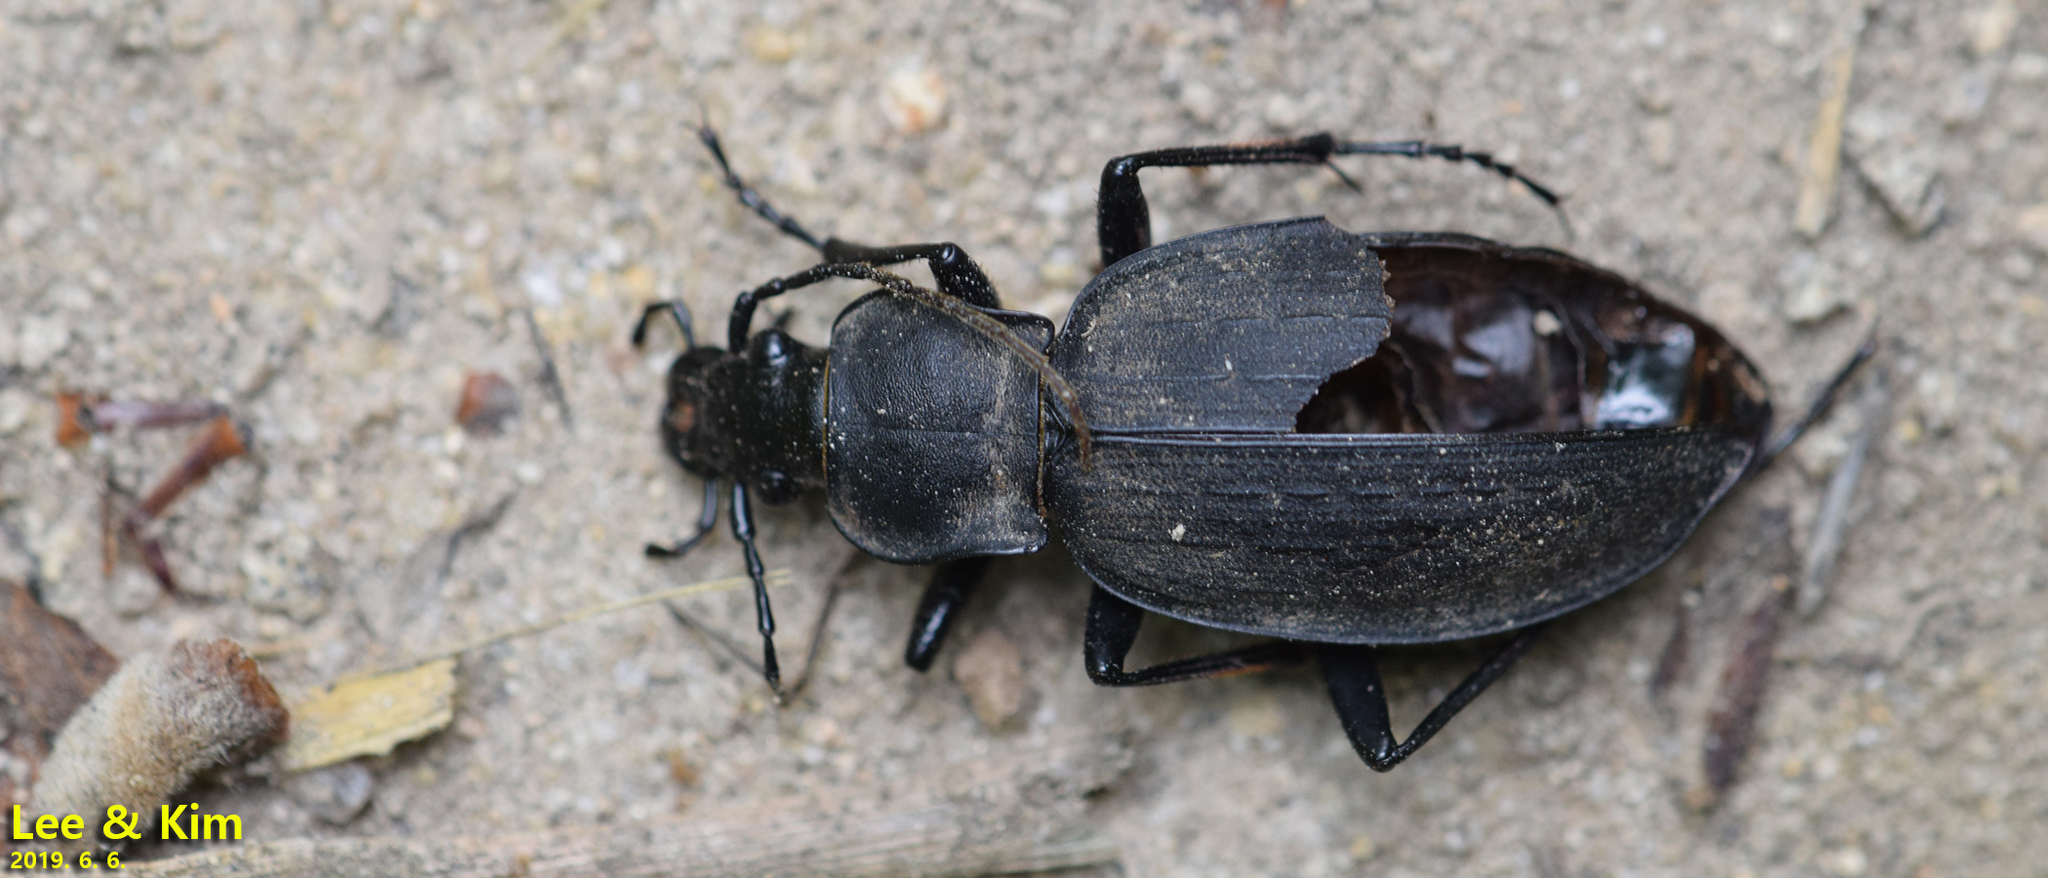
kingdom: Animalia
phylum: Arthropoda
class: Insecta
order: Coleoptera
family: Carabidae
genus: Carabus
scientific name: Carabus koreanus
